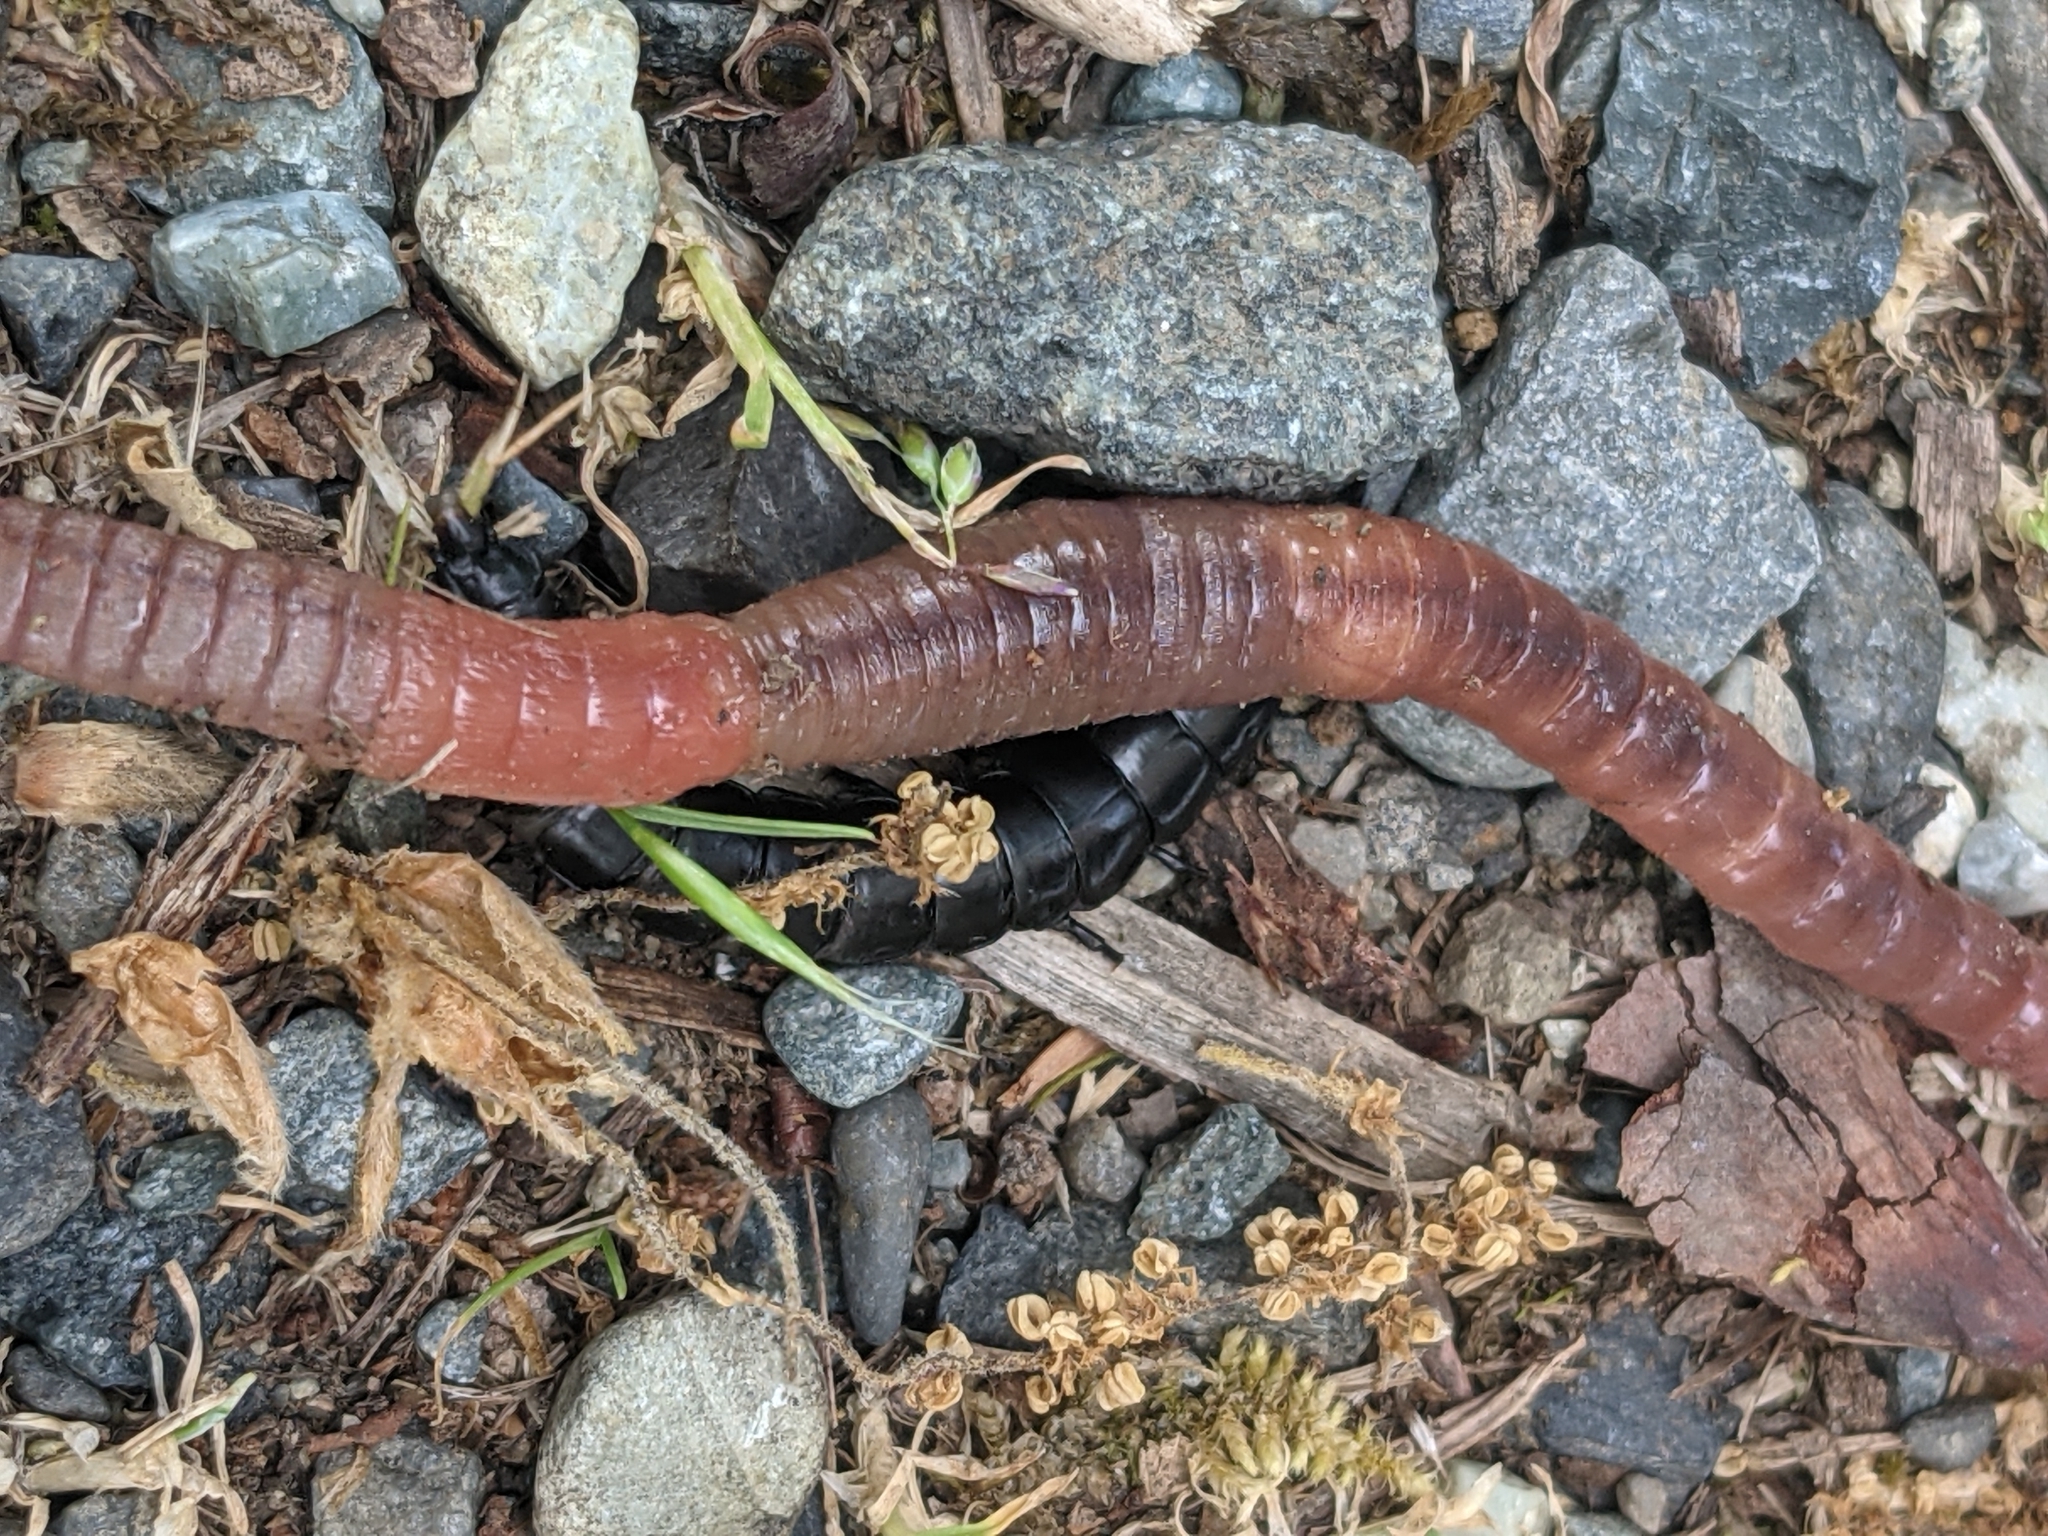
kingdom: Animalia
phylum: Arthropoda
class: Insecta
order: Coleoptera
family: Carabidae
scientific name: Carabidae
